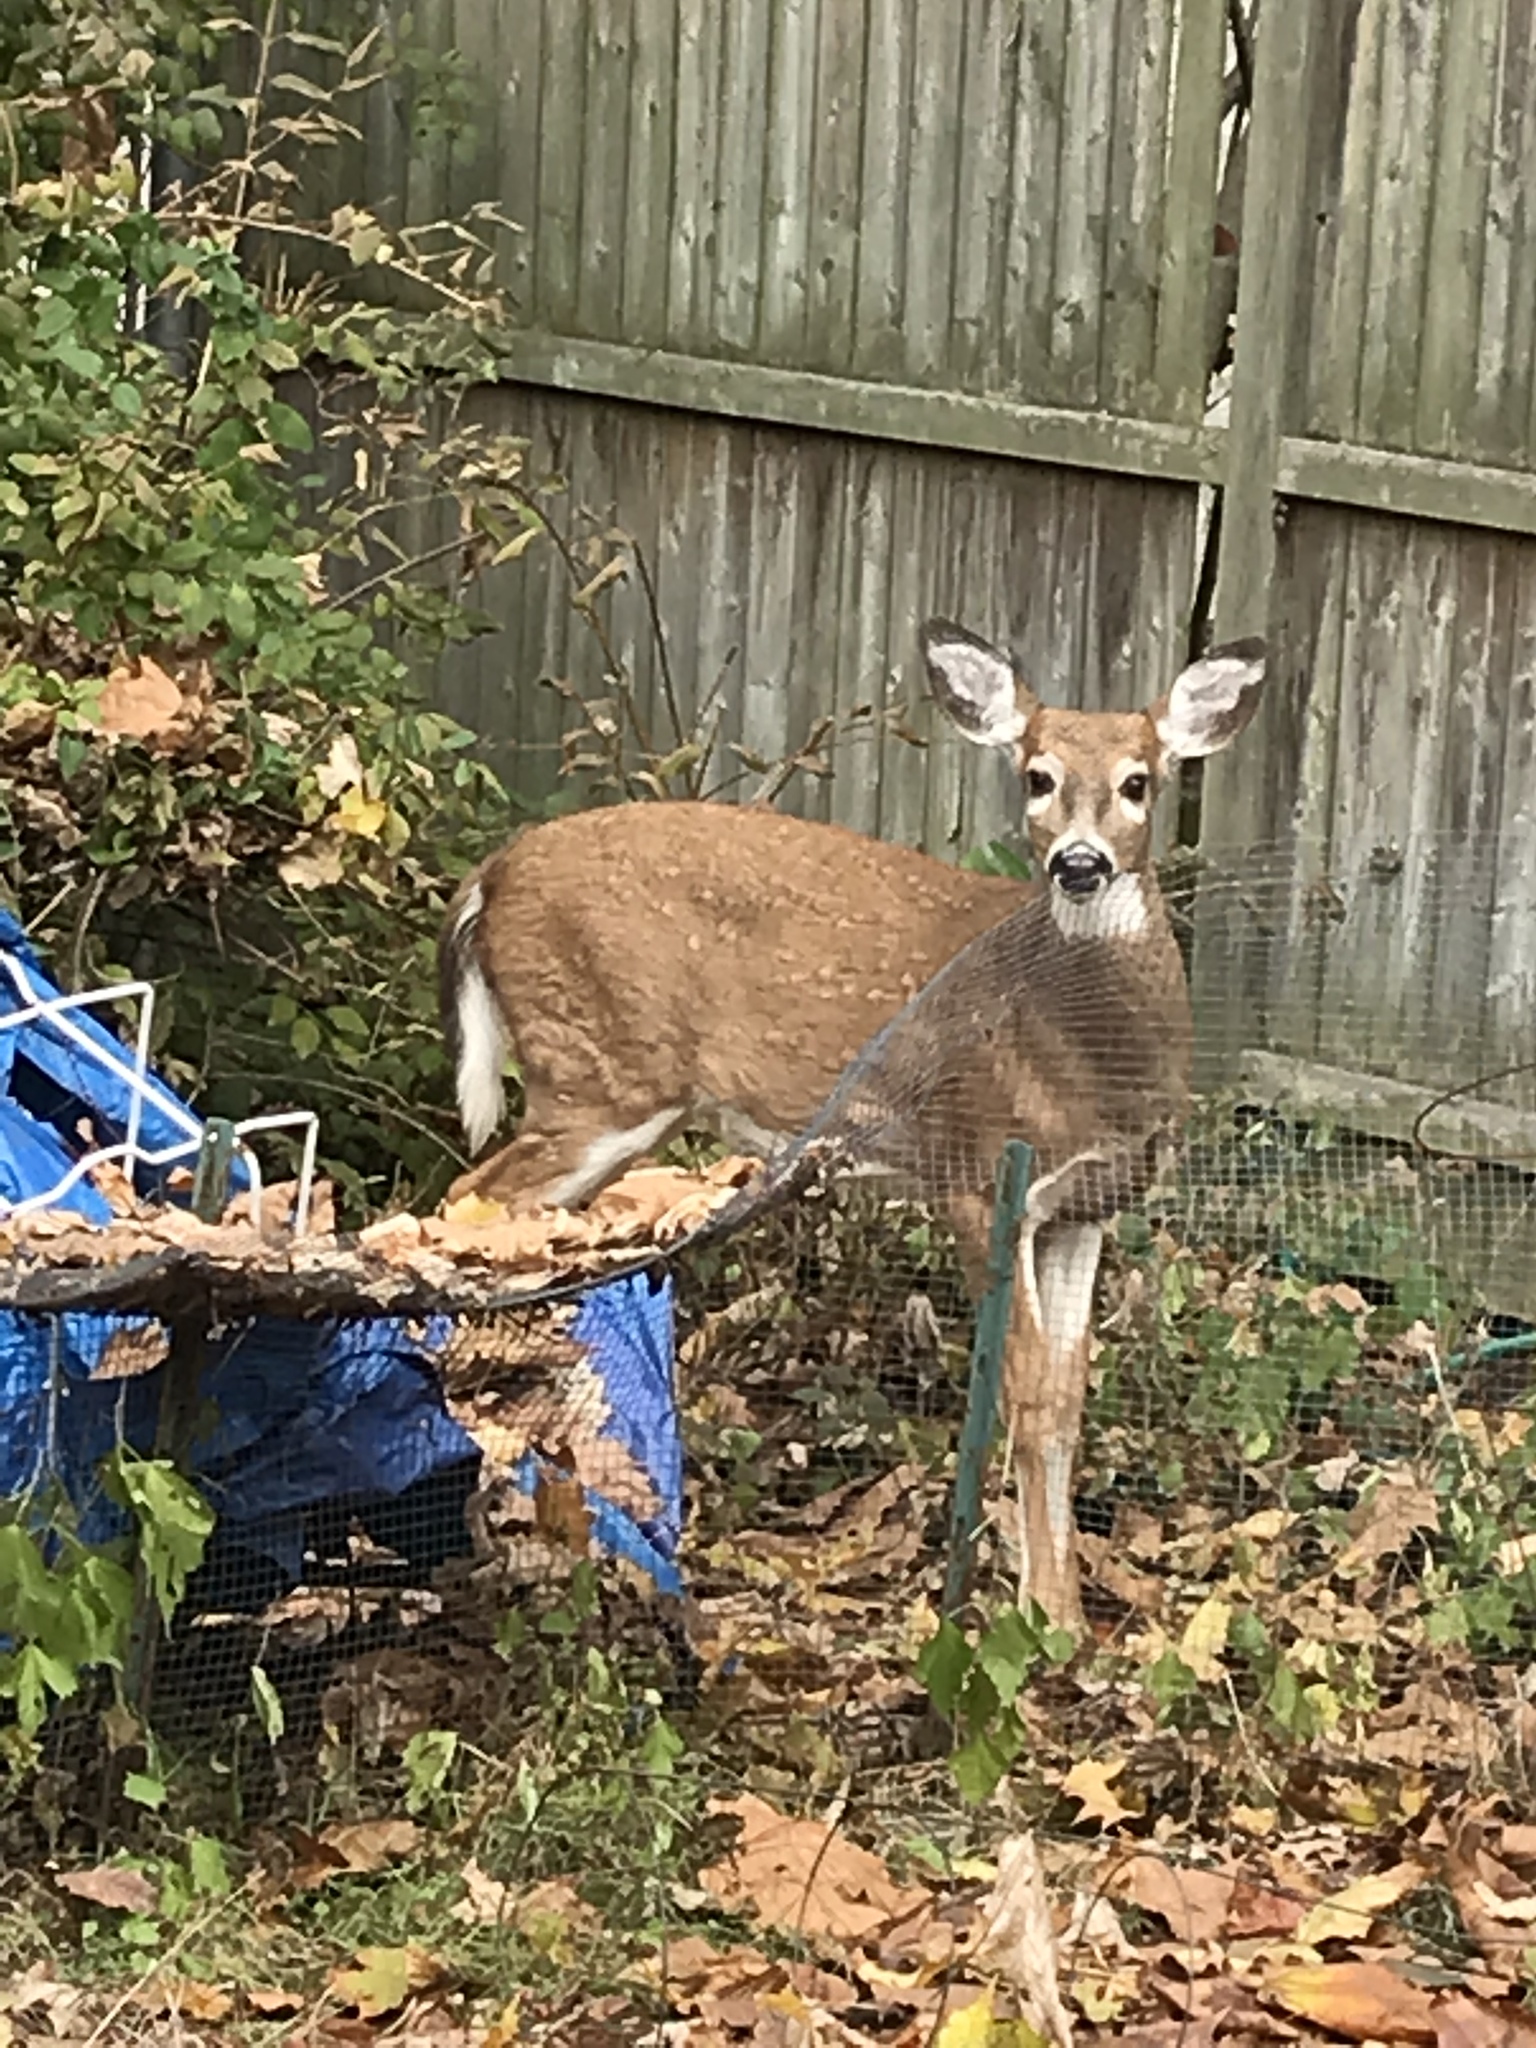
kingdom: Animalia
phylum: Chordata
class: Mammalia
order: Artiodactyla
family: Cervidae
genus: Odocoileus
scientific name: Odocoileus virginianus
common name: White-tailed deer
